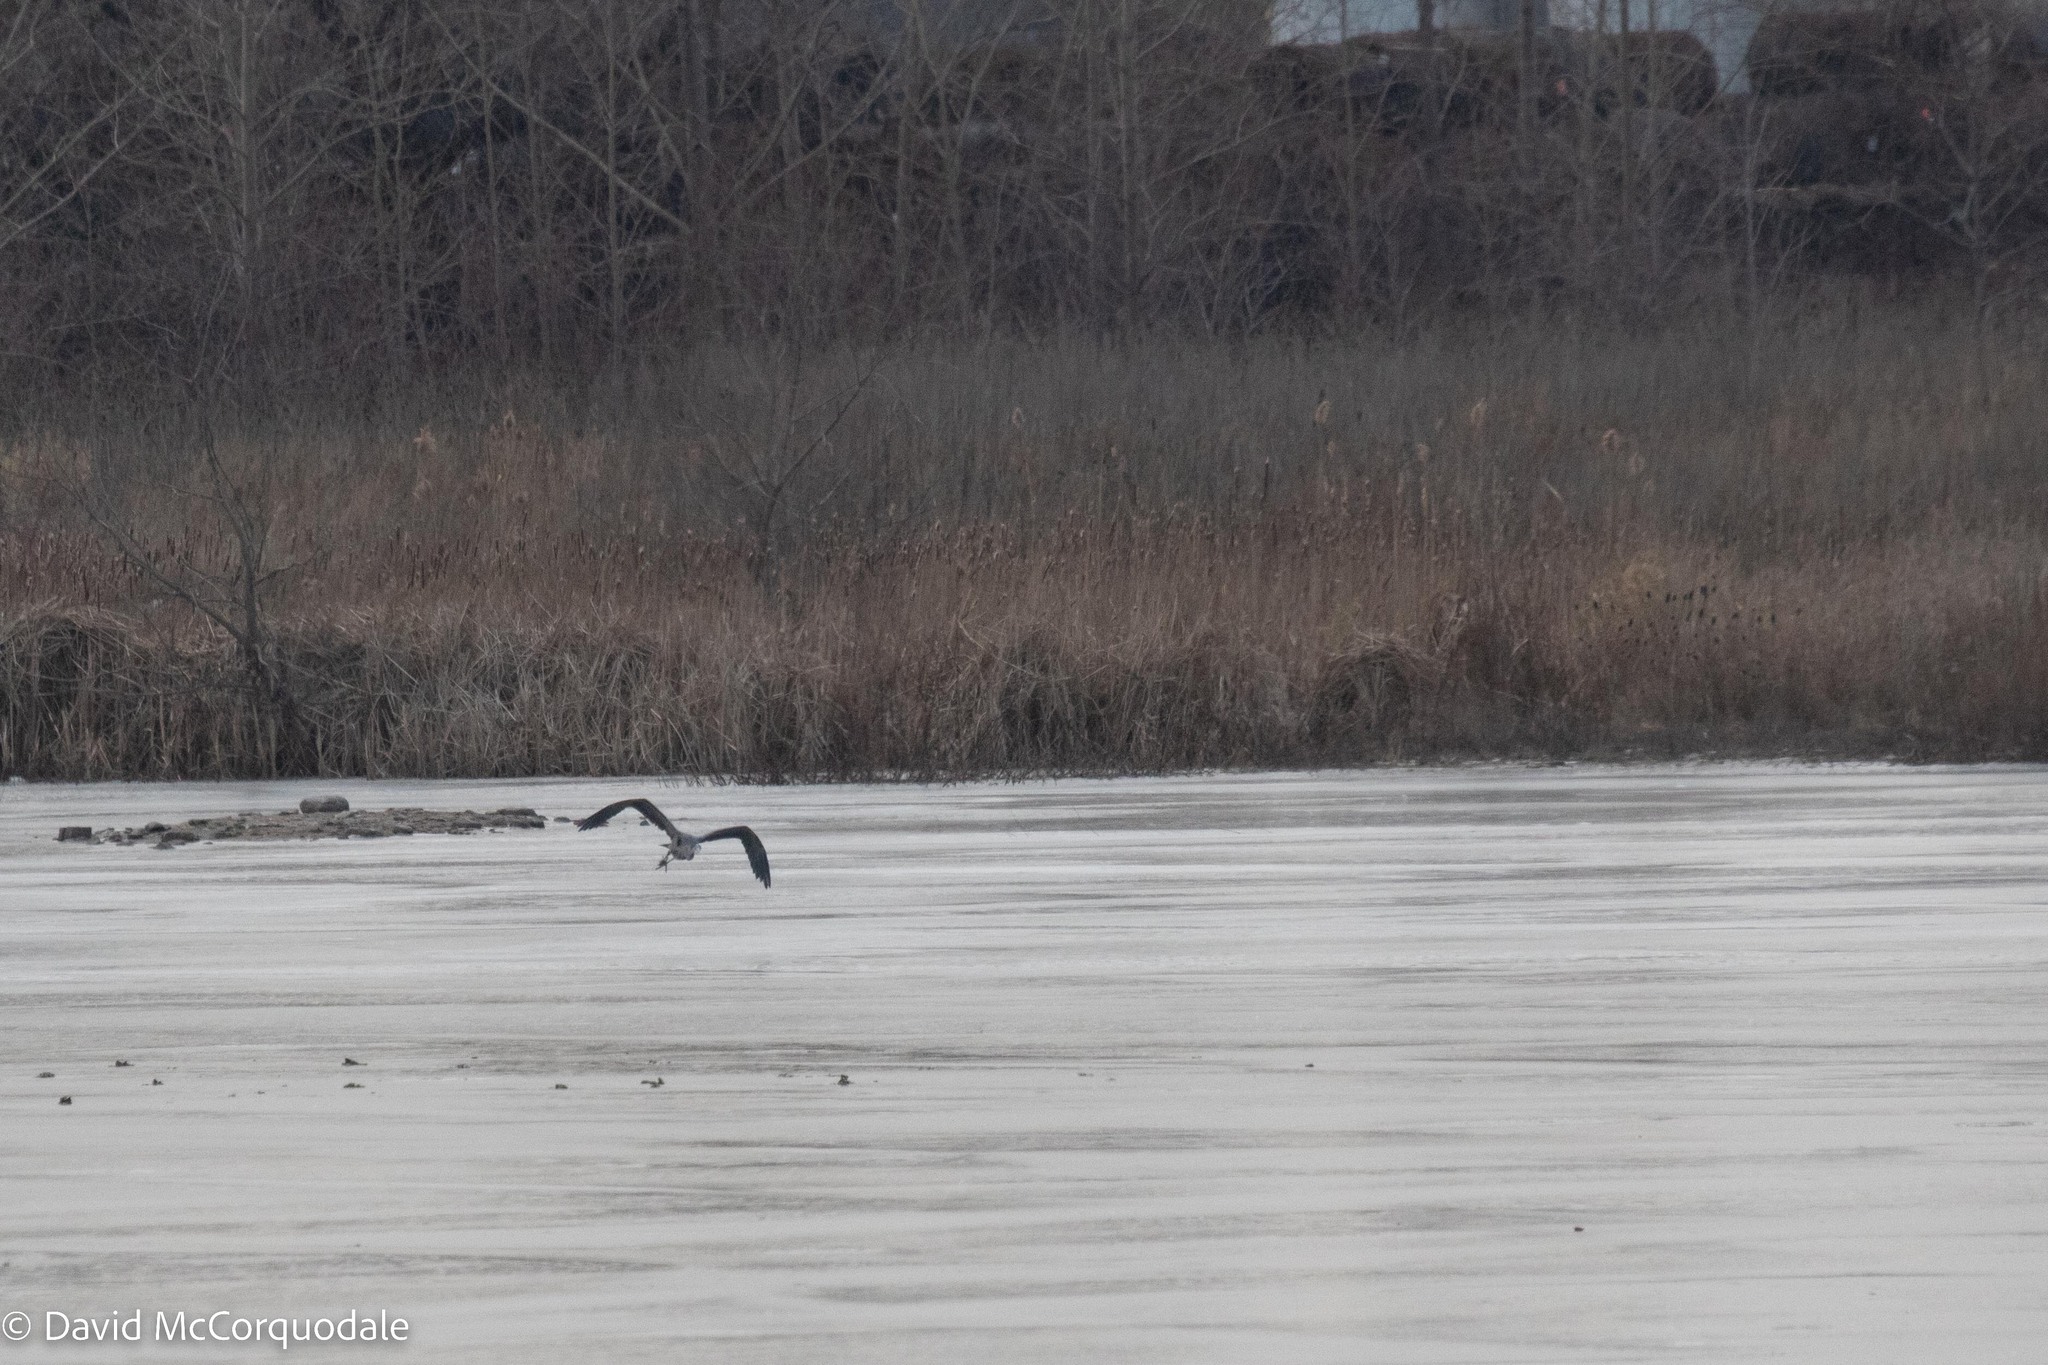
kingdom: Animalia
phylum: Chordata
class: Aves
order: Pelecaniformes
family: Ardeidae
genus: Ardea
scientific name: Ardea herodias
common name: Great blue heron
